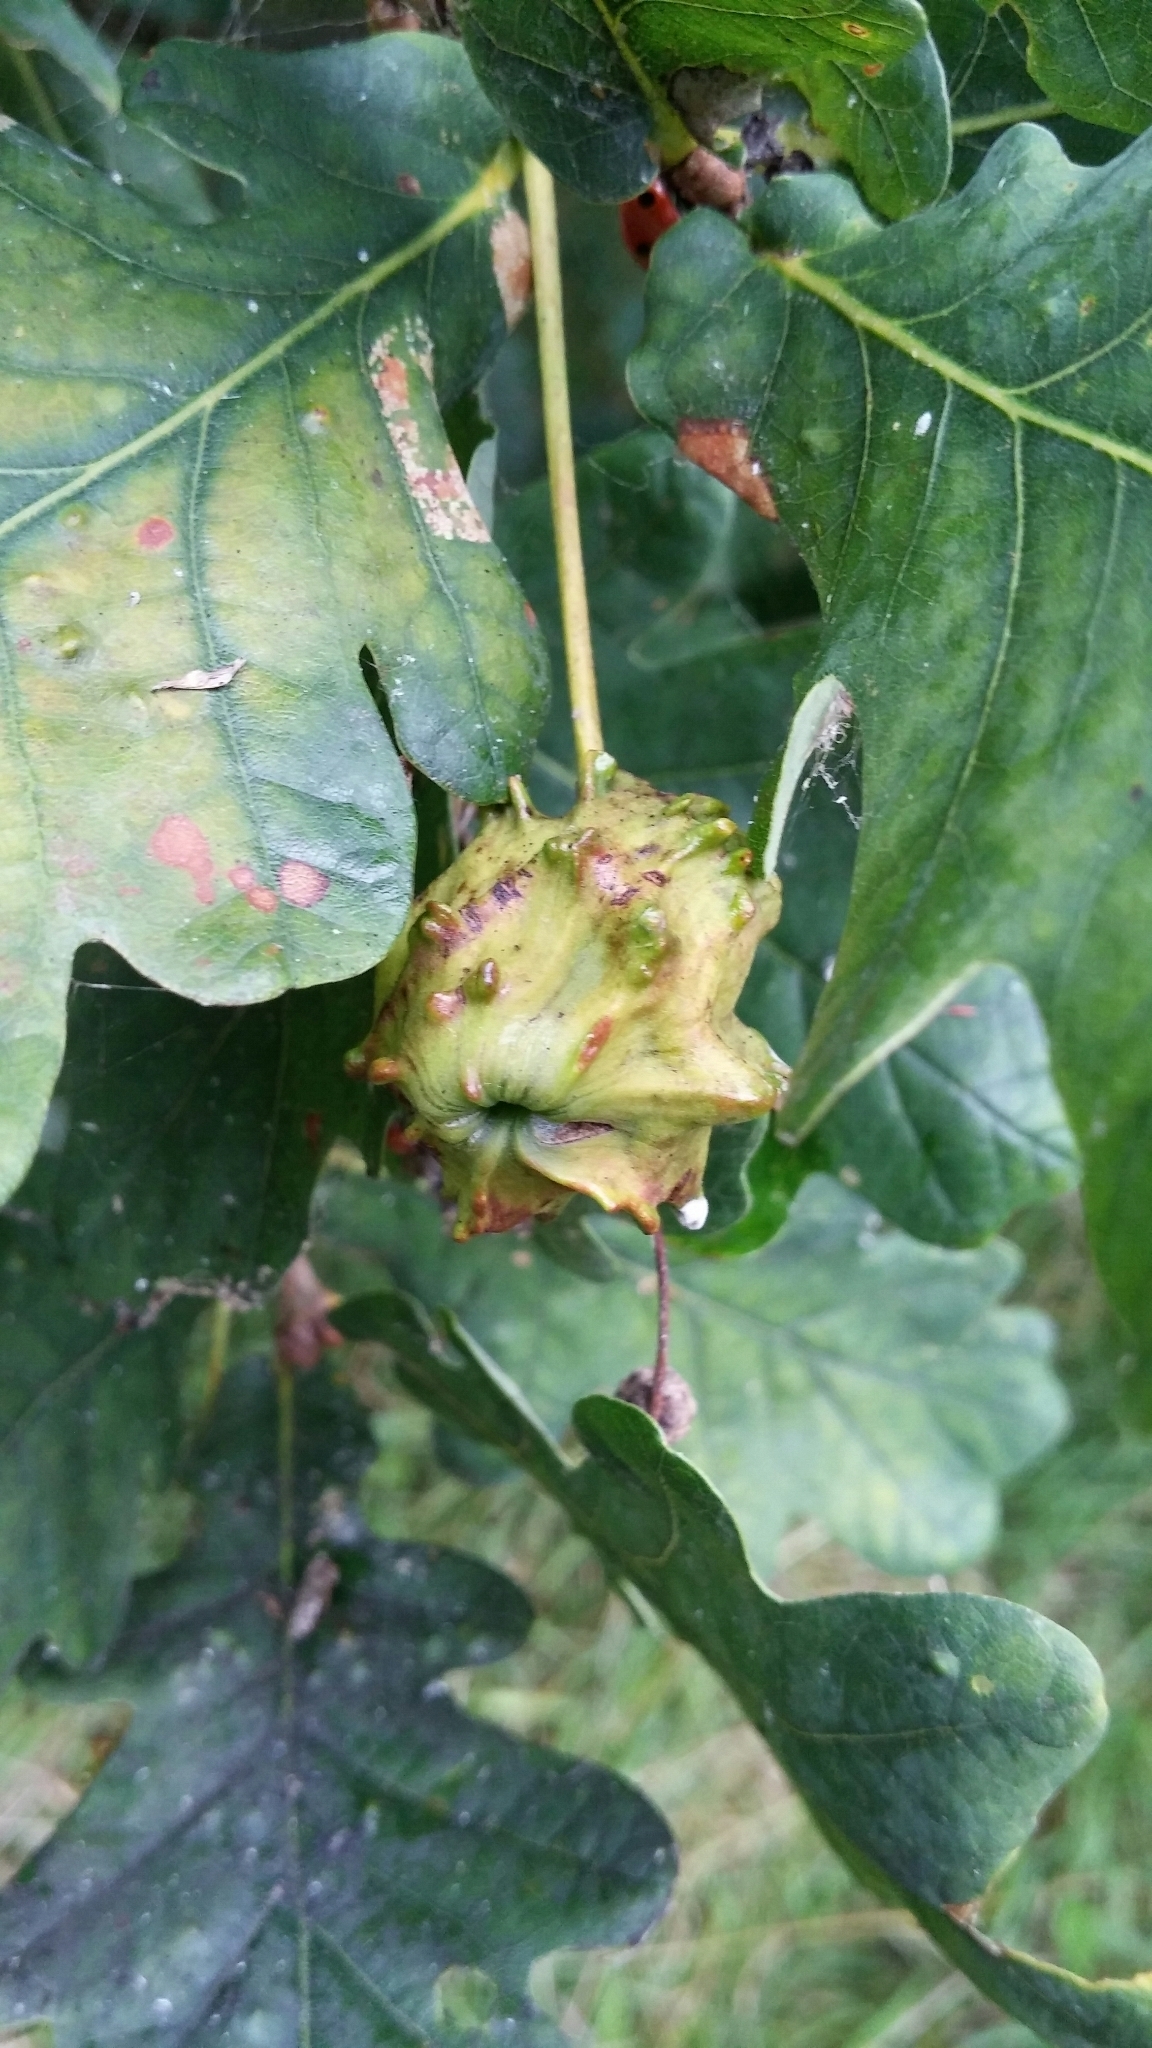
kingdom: Animalia
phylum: Arthropoda
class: Insecta
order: Hymenoptera
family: Cynipidae
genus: Andricus
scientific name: Andricus quercuscalicis
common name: Knopper gall
